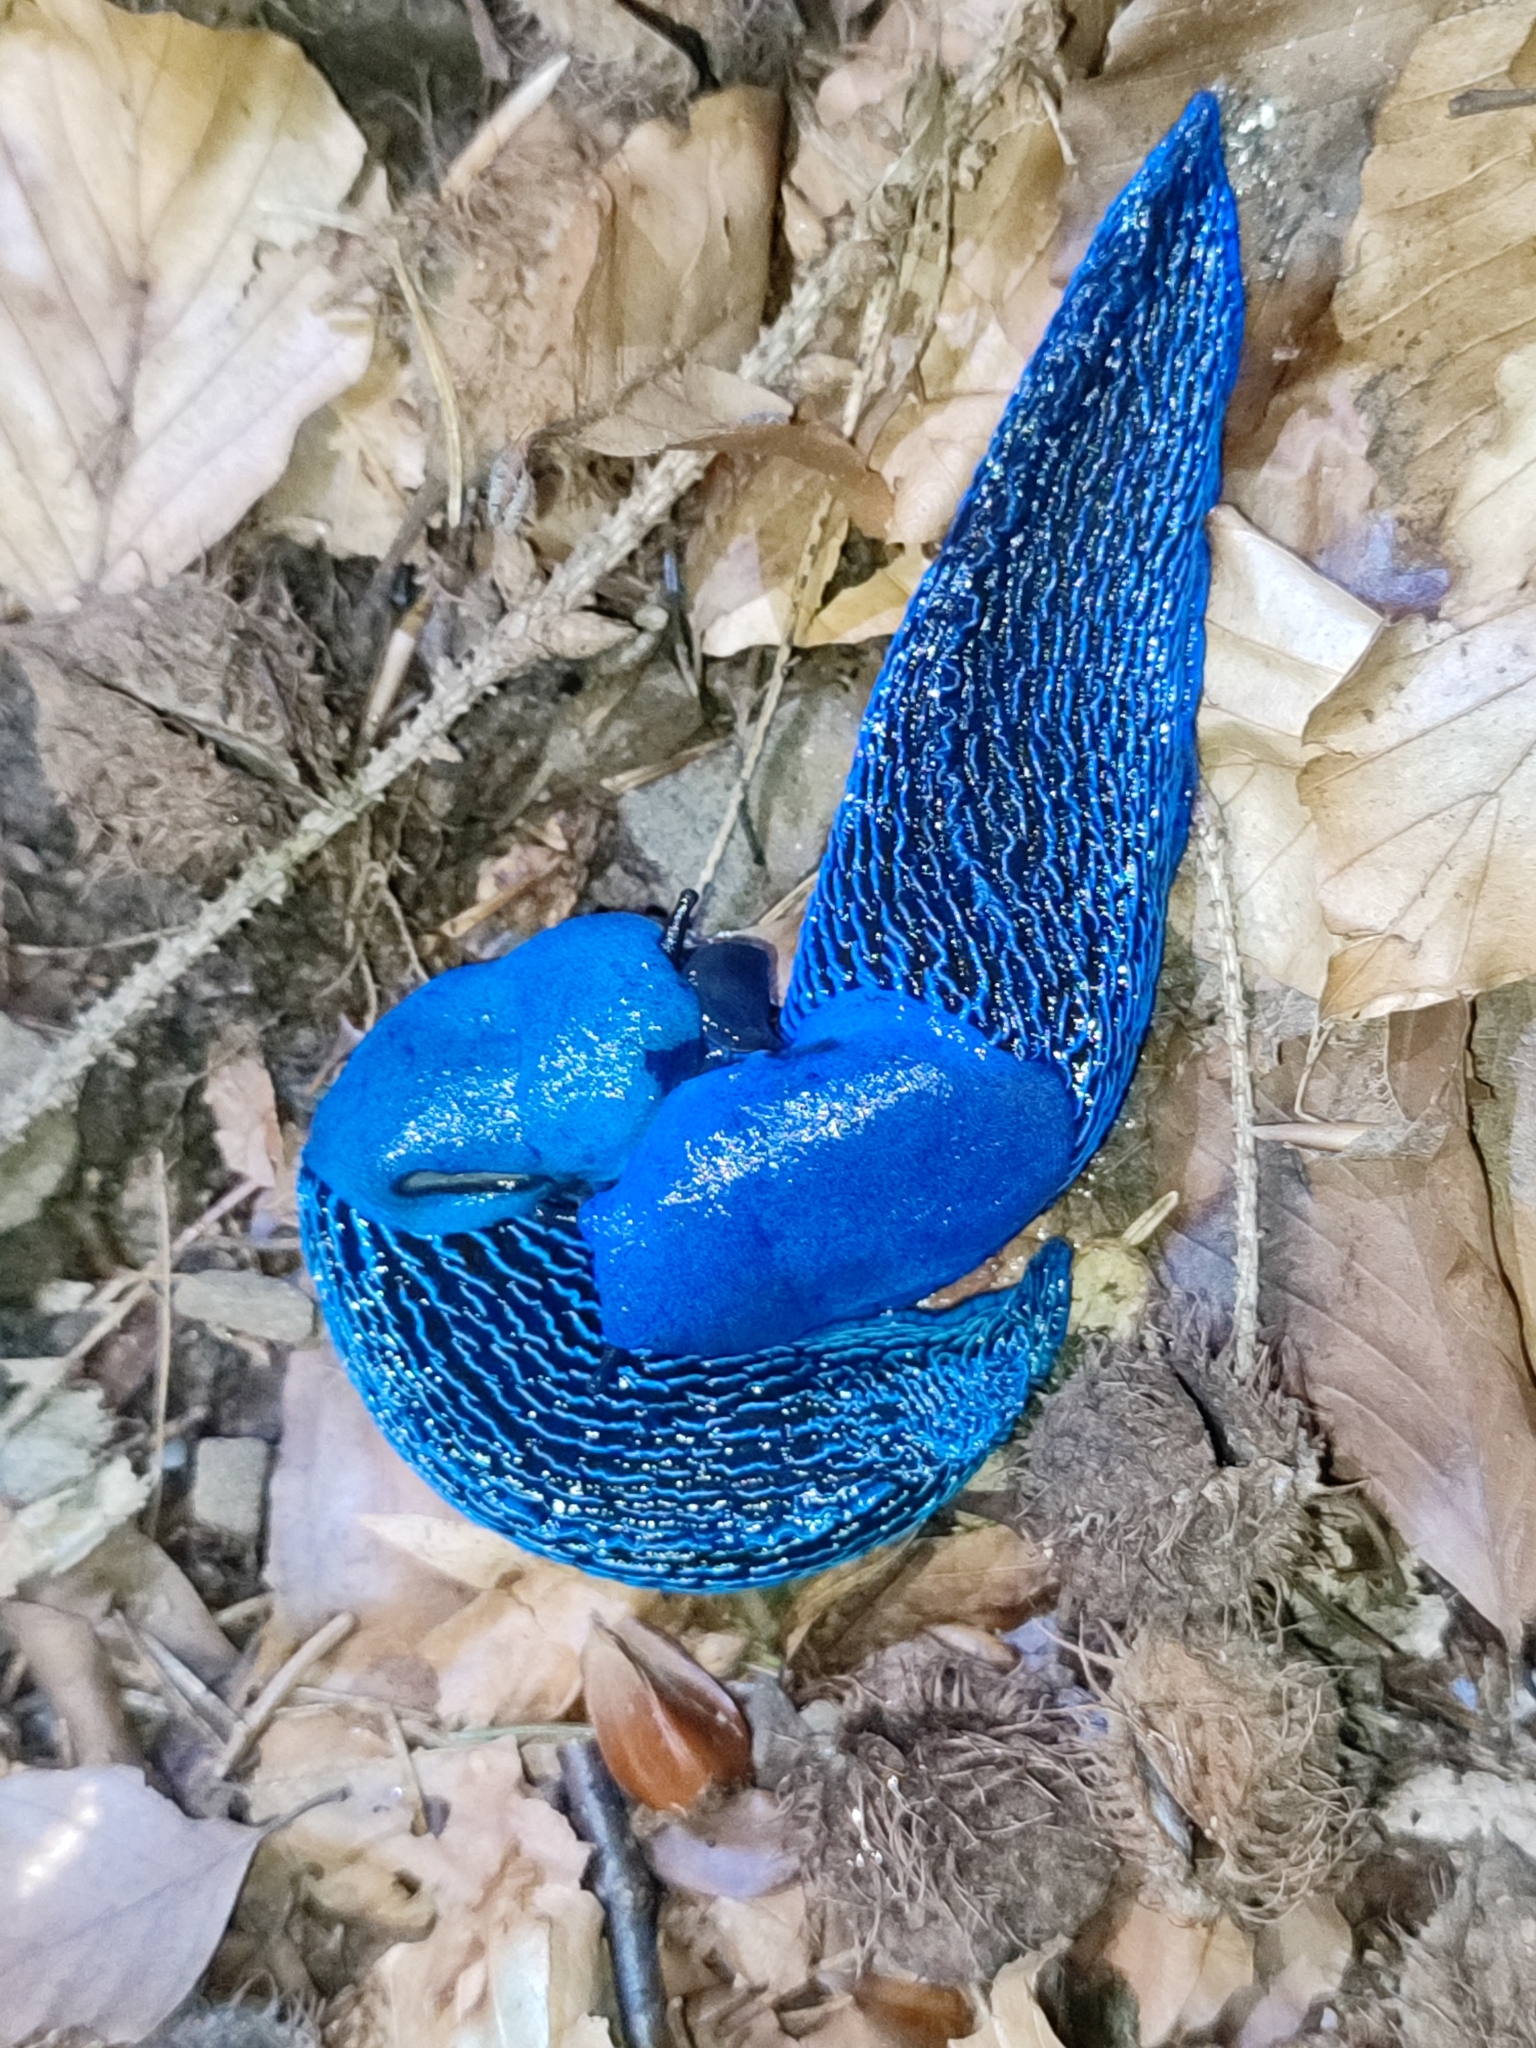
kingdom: Animalia
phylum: Mollusca
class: Gastropoda
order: Stylommatophora
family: Limacidae
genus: Bielzia
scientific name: Bielzia coerulans
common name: Carpathian blue slug
